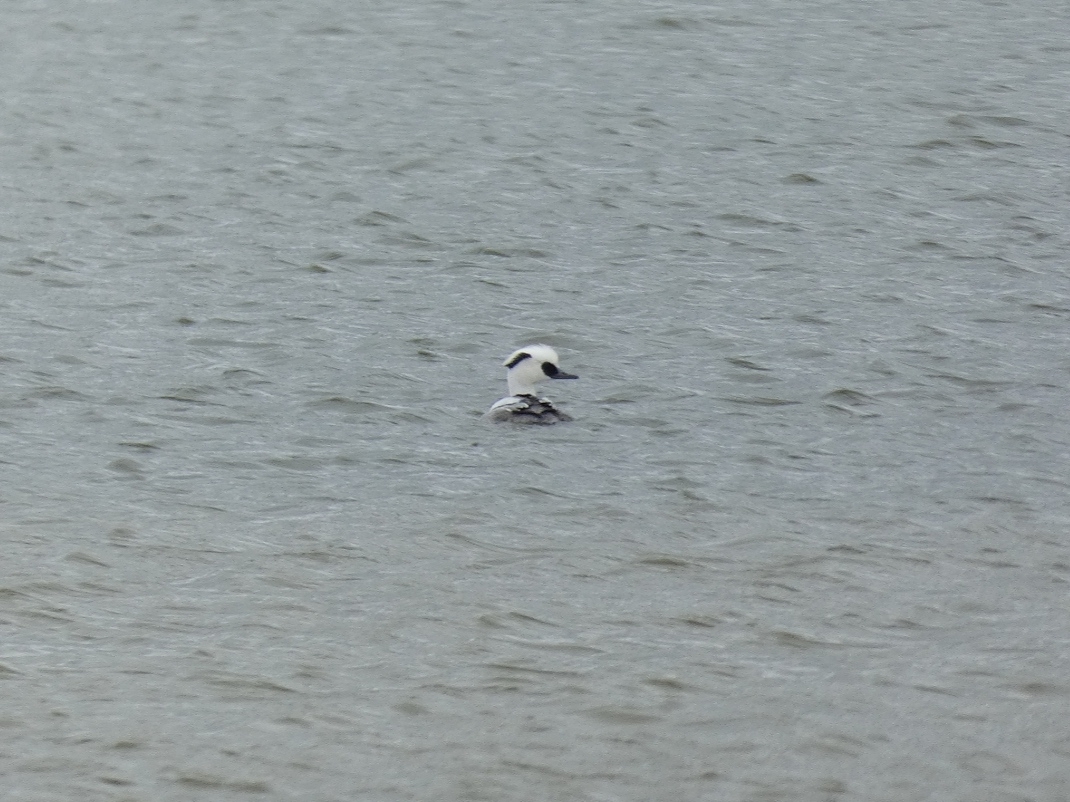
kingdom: Animalia
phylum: Chordata
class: Aves
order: Anseriformes
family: Anatidae
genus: Mergellus
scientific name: Mergellus albellus
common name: Smew
